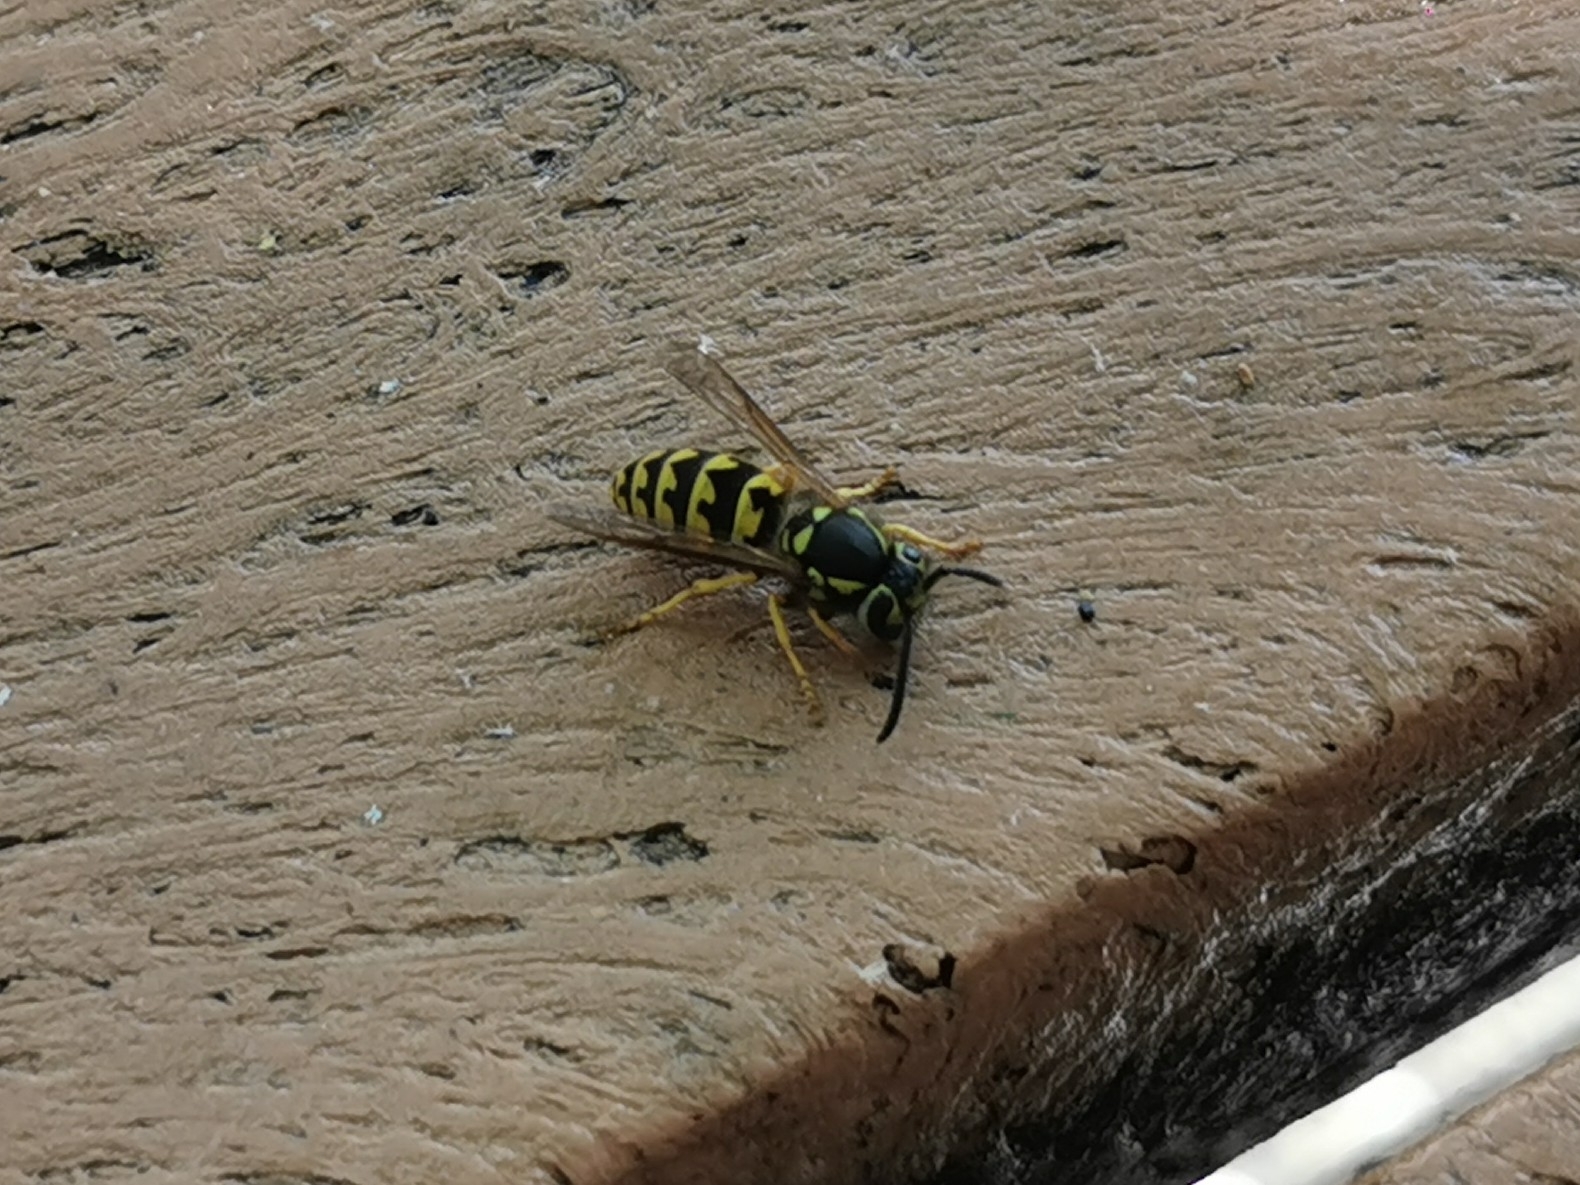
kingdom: Animalia
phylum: Arthropoda
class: Insecta
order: Hymenoptera
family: Vespidae
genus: Vespula
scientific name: Vespula pensylvanica
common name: Western yellowjacket
